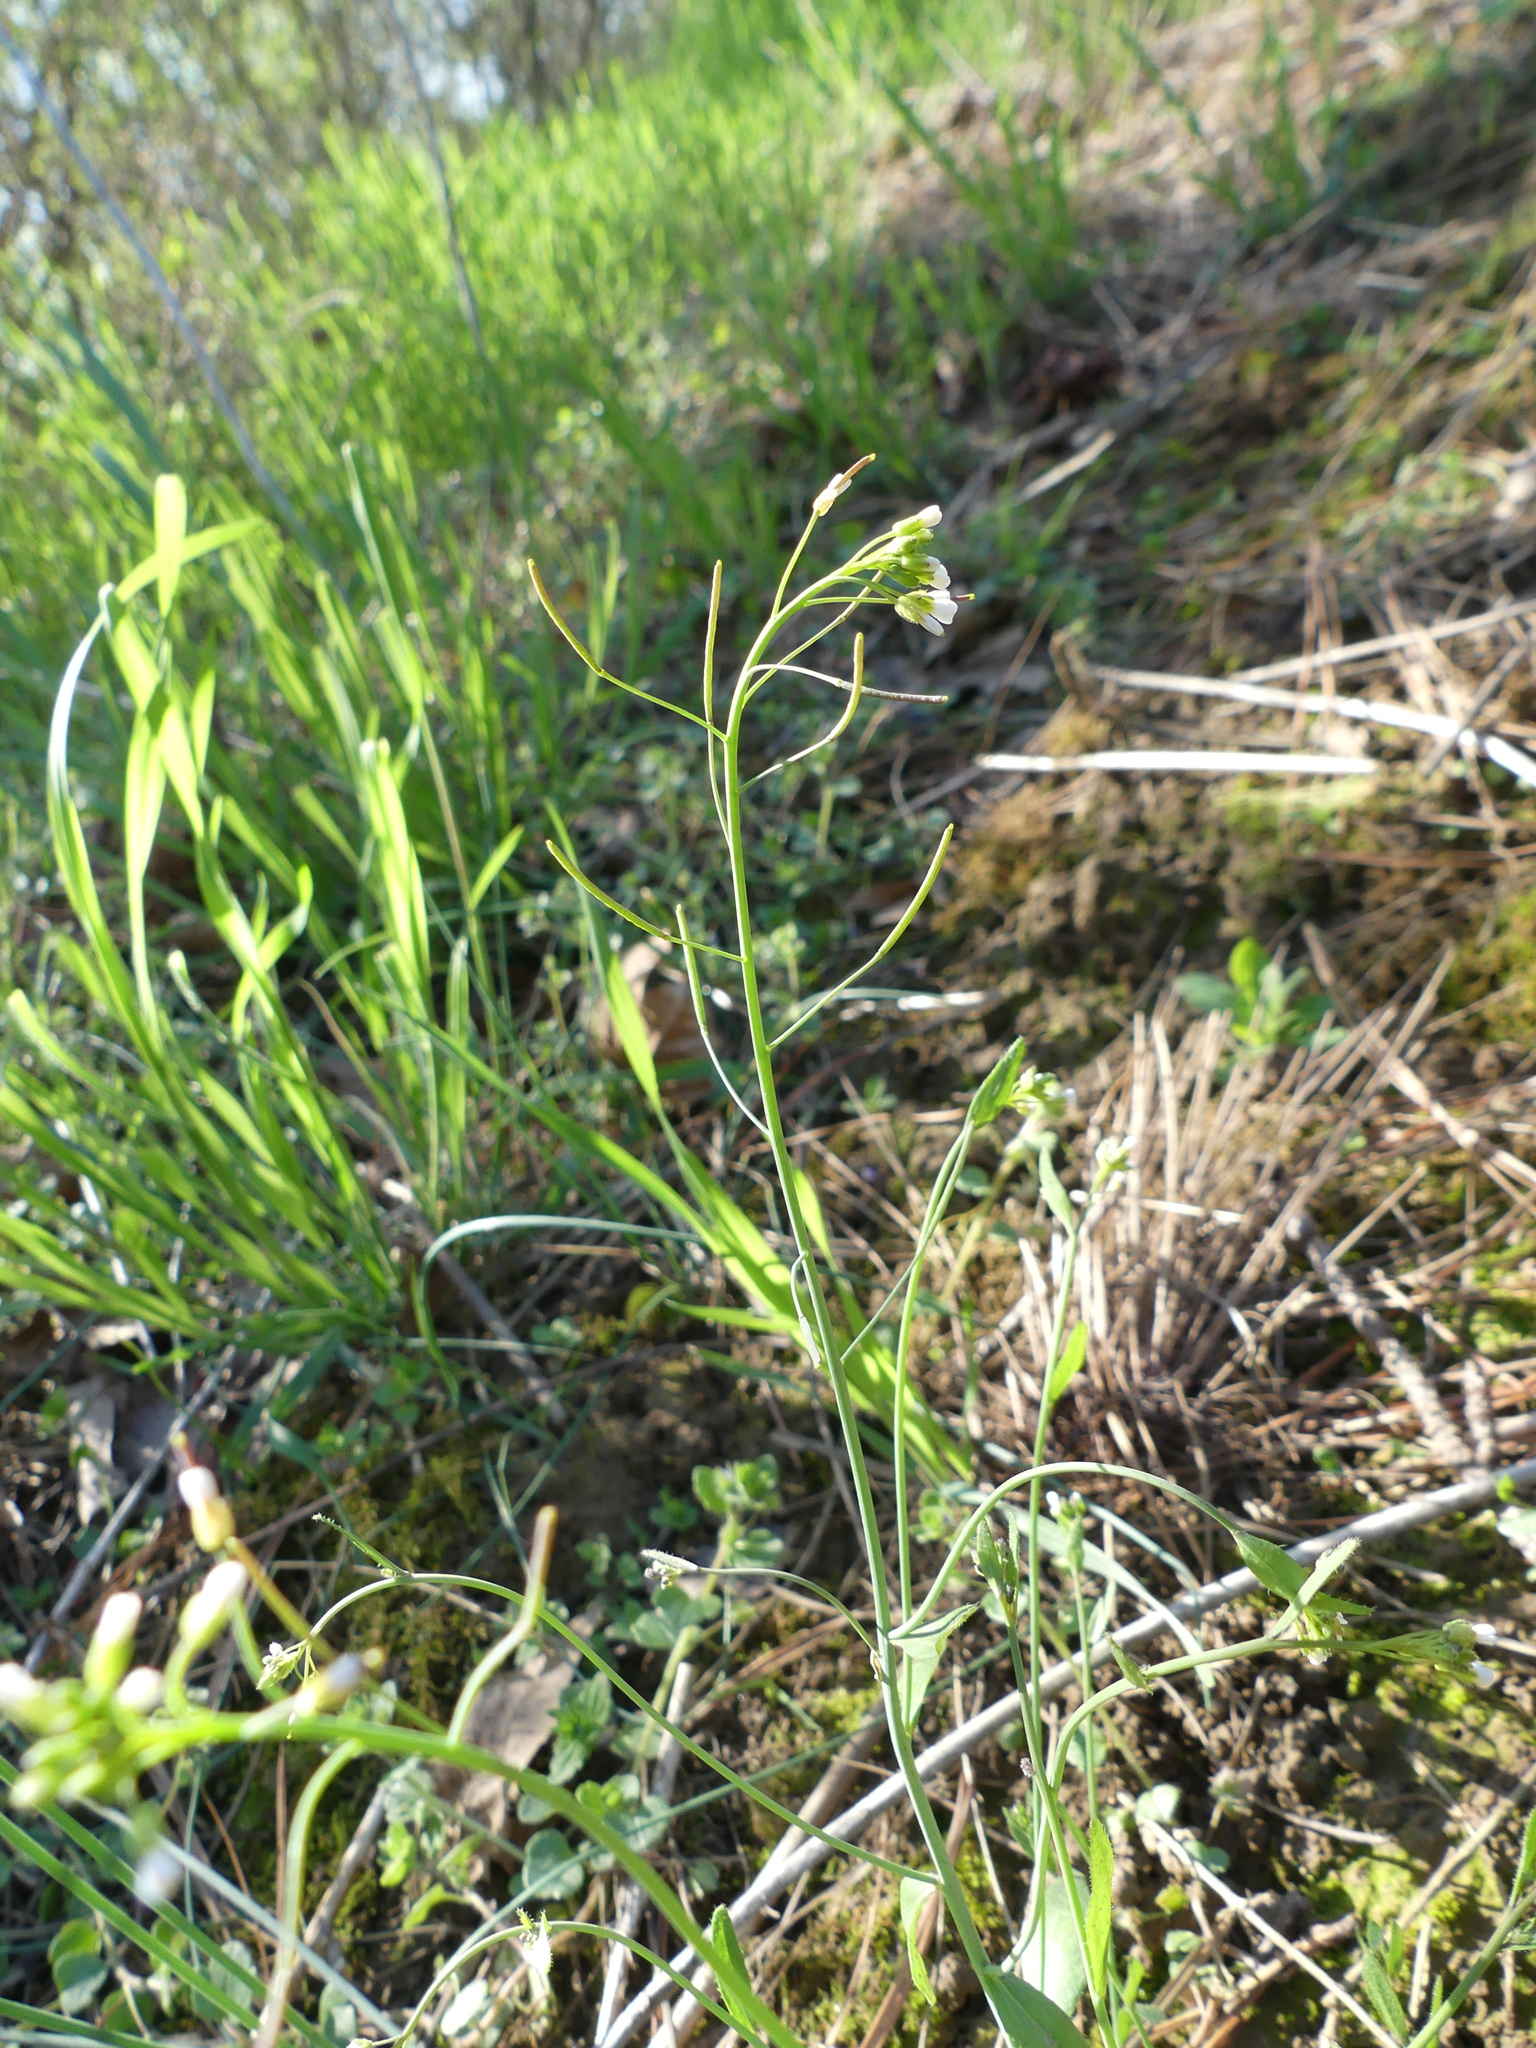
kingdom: Plantae
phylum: Tracheophyta
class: Magnoliopsida
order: Brassicales
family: Brassicaceae
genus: Arabidopsis
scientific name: Arabidopsis thaliana
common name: Thale cress
